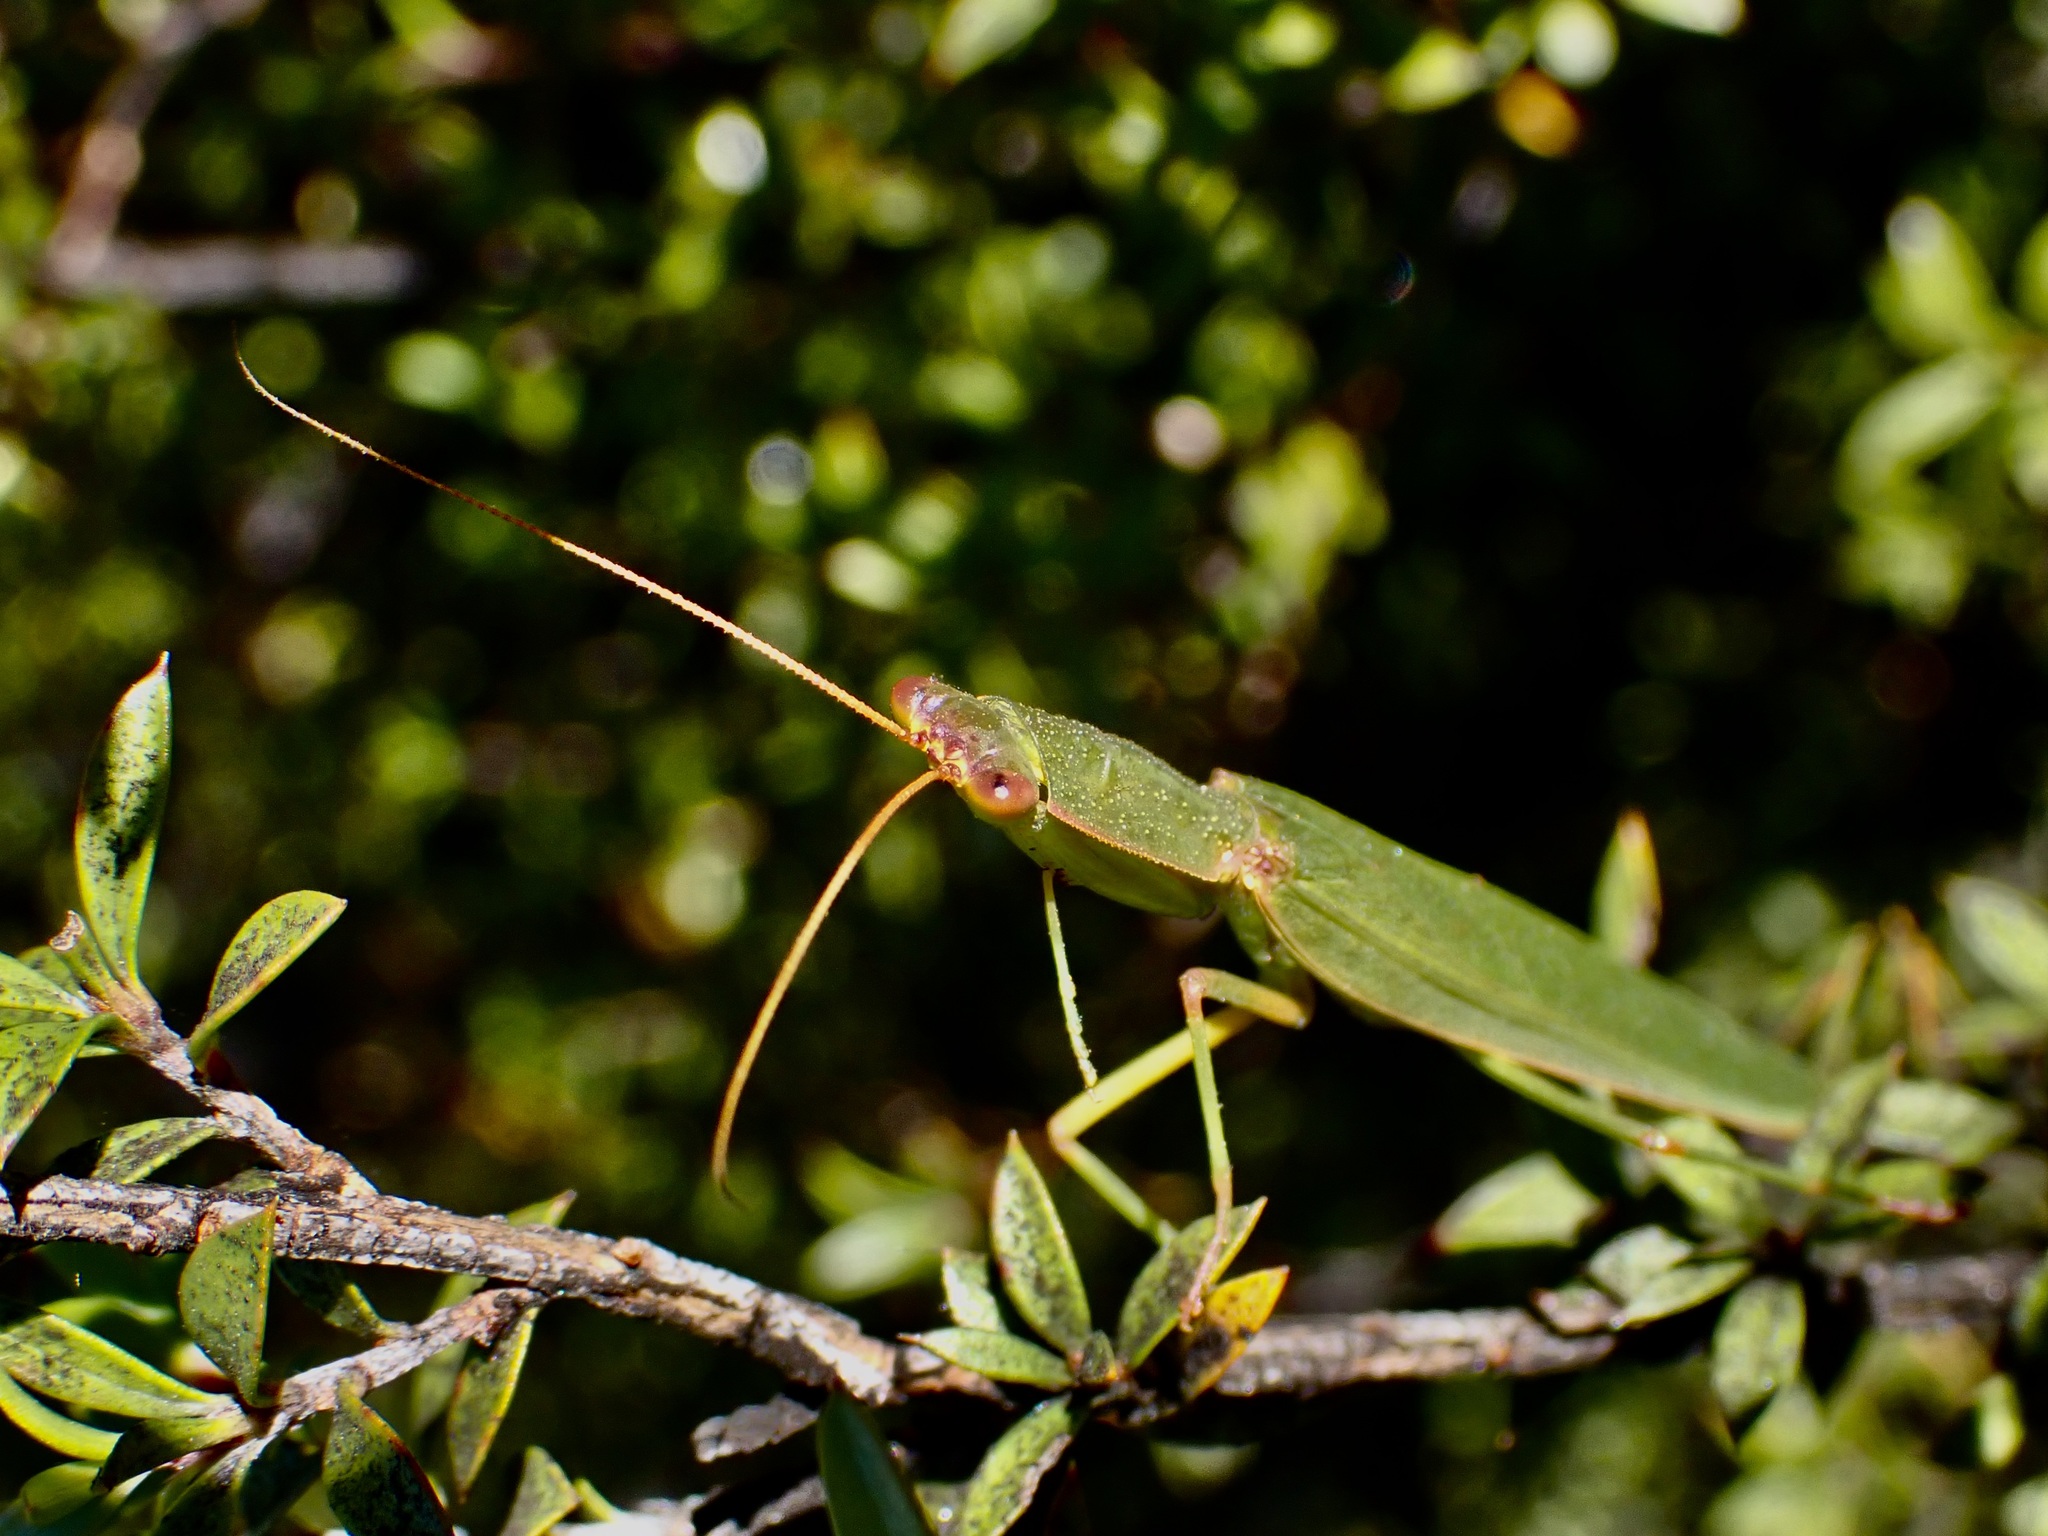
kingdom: Animalia
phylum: Arthropoda
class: Insecta
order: Mantodea
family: Mantidae
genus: Orthodera
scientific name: Orthodera novaezealandiae
